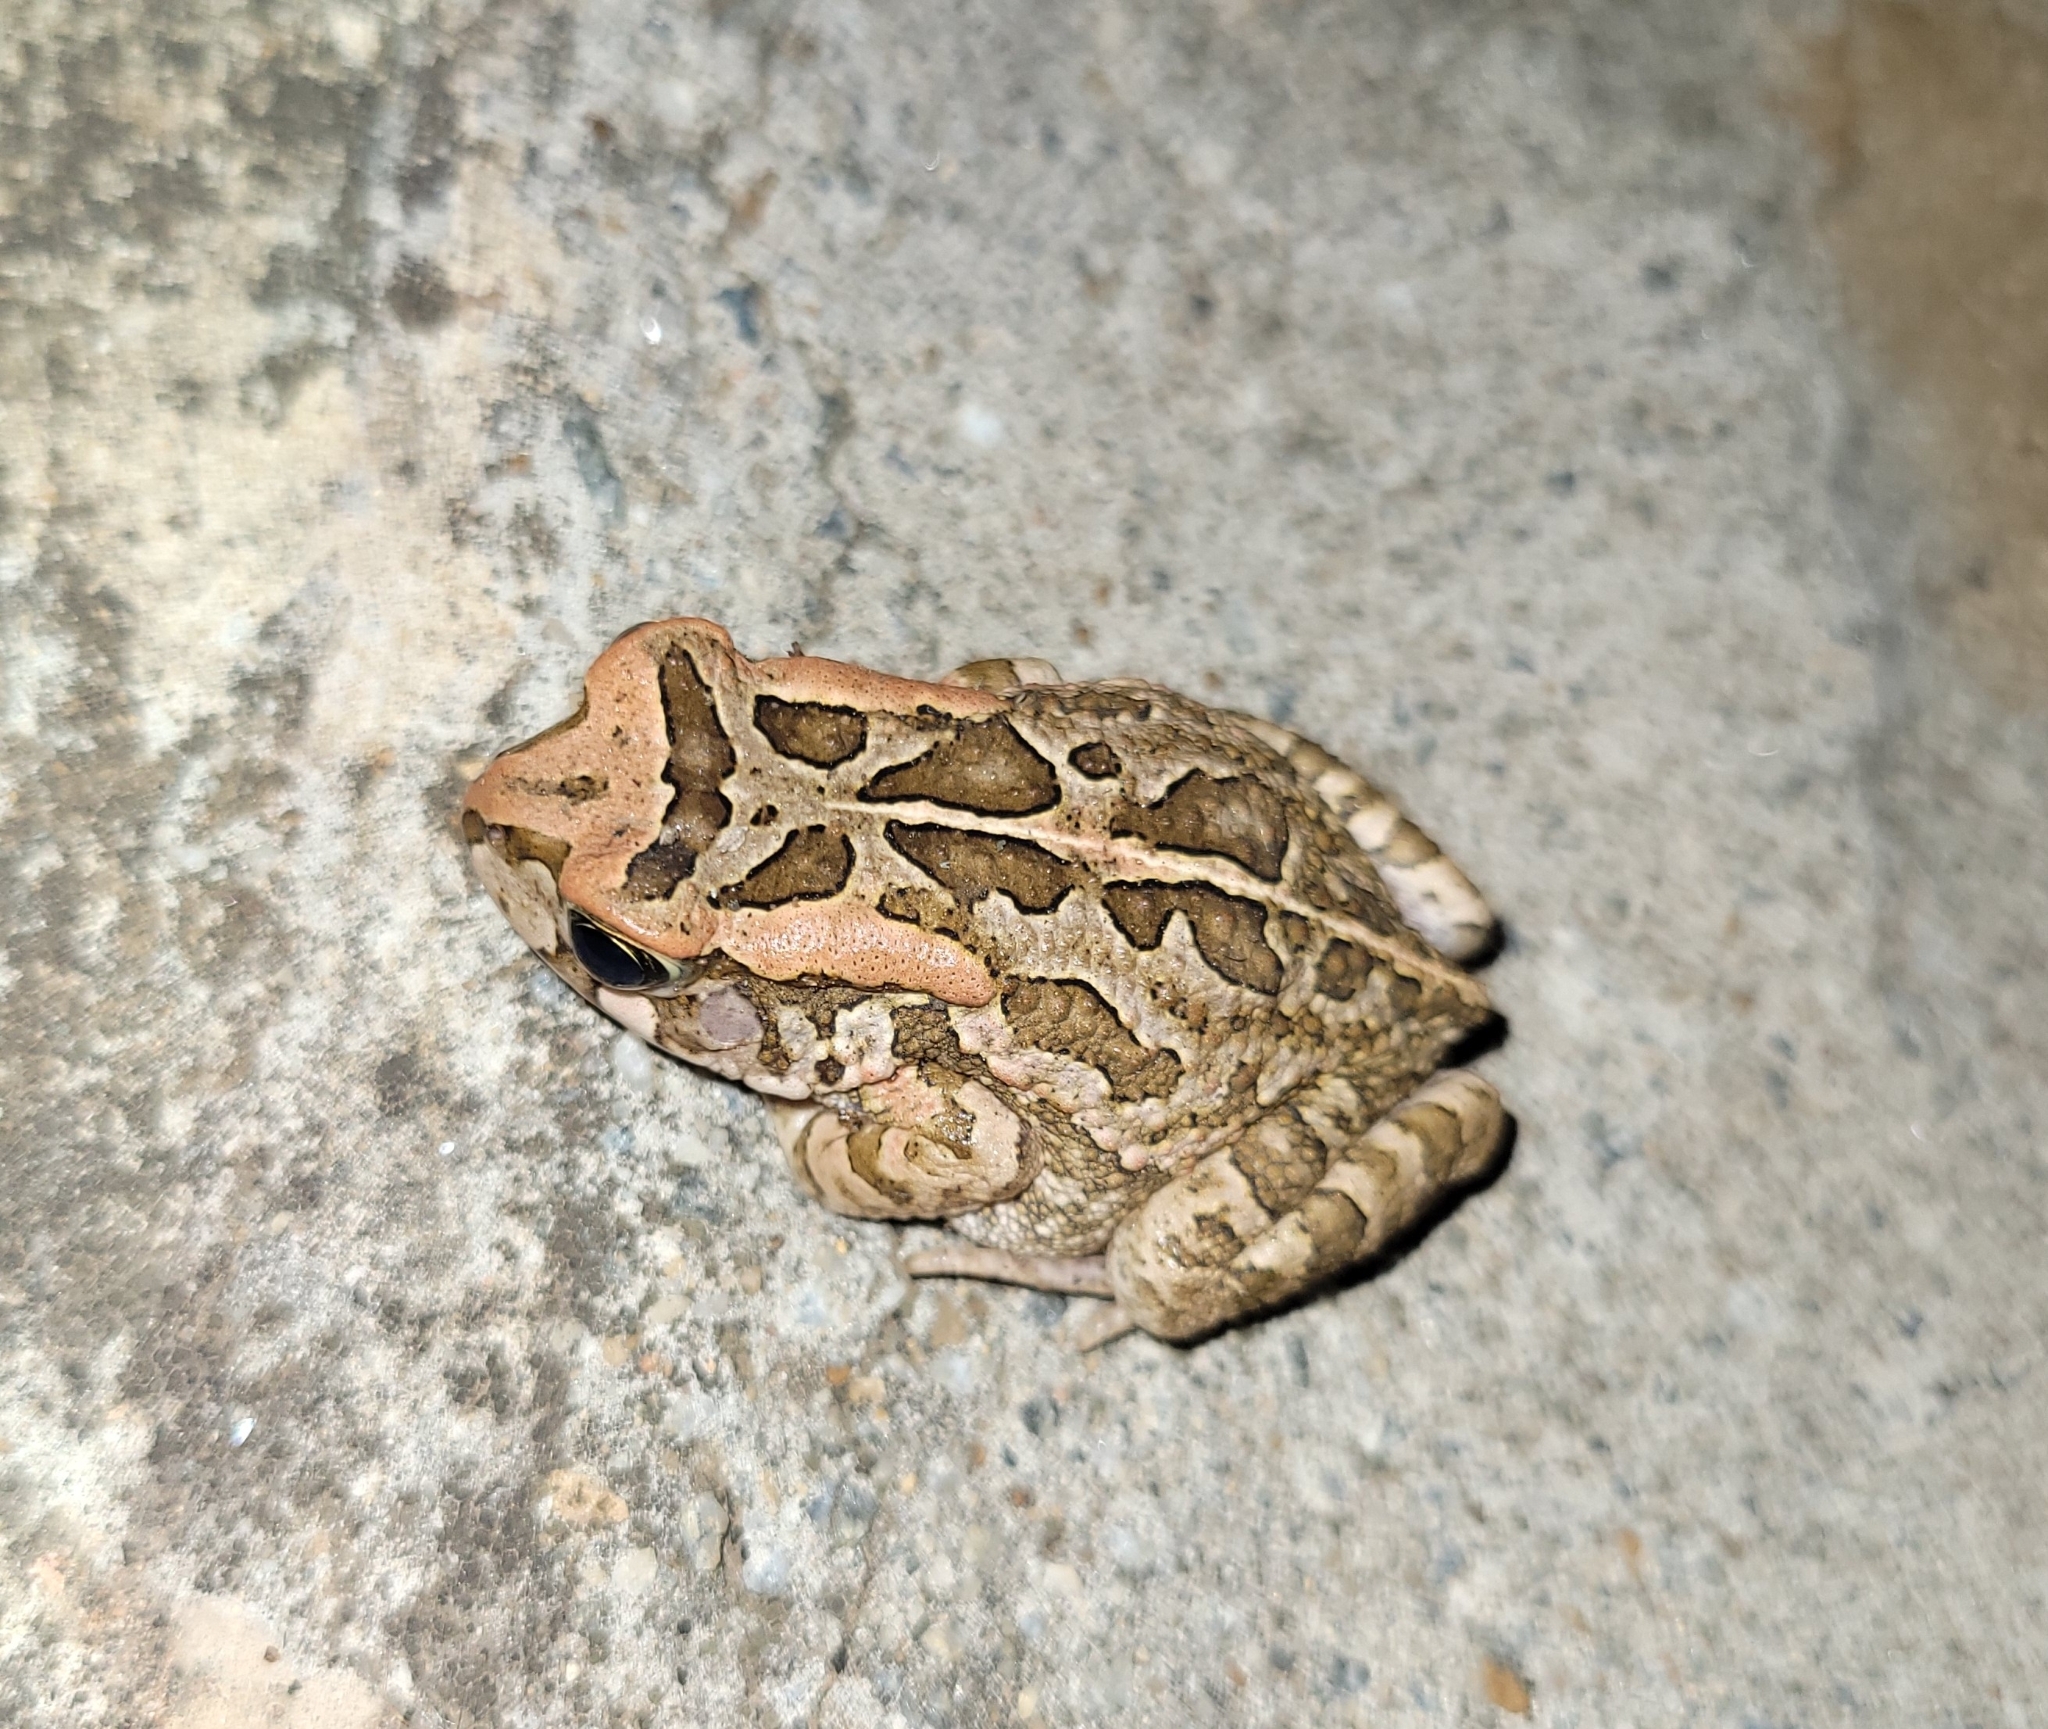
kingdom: Animalia
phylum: Chordata
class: Amphibia
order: Anura
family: Bufonidae
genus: Sclerophrys
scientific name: Sclerophrys capensis
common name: Ranger’s toad
